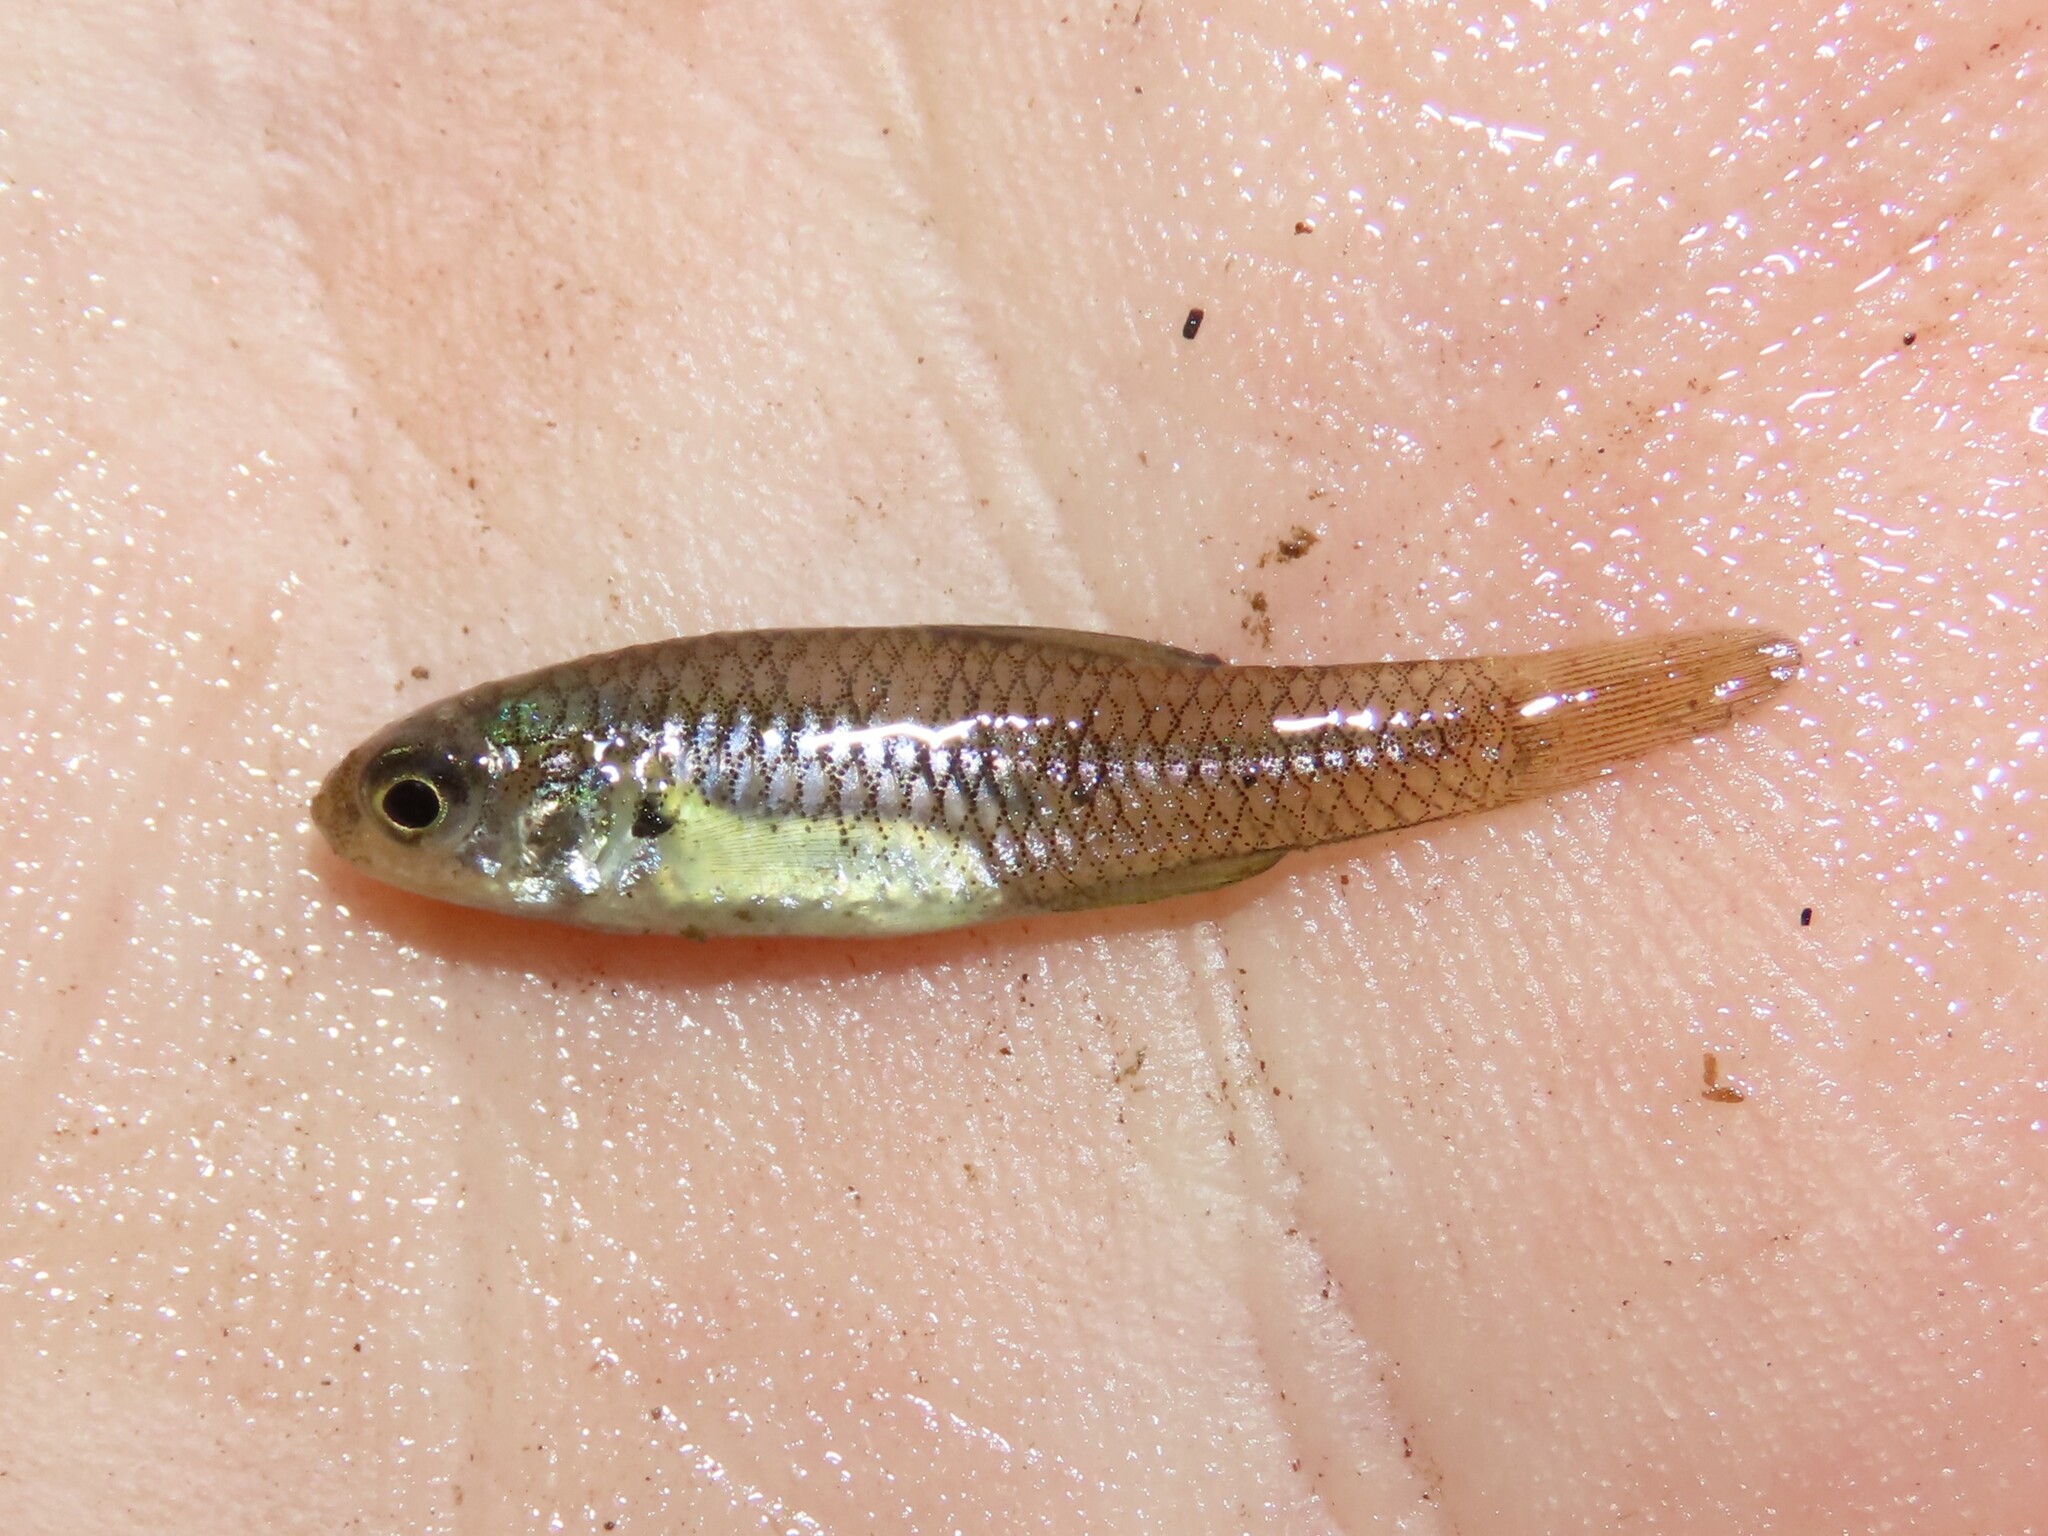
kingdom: Animalia
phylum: Chordata
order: Cyprinodontiformes
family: Fundulidae
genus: Lucania
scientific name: Lucania parva
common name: Rainwater killifish
